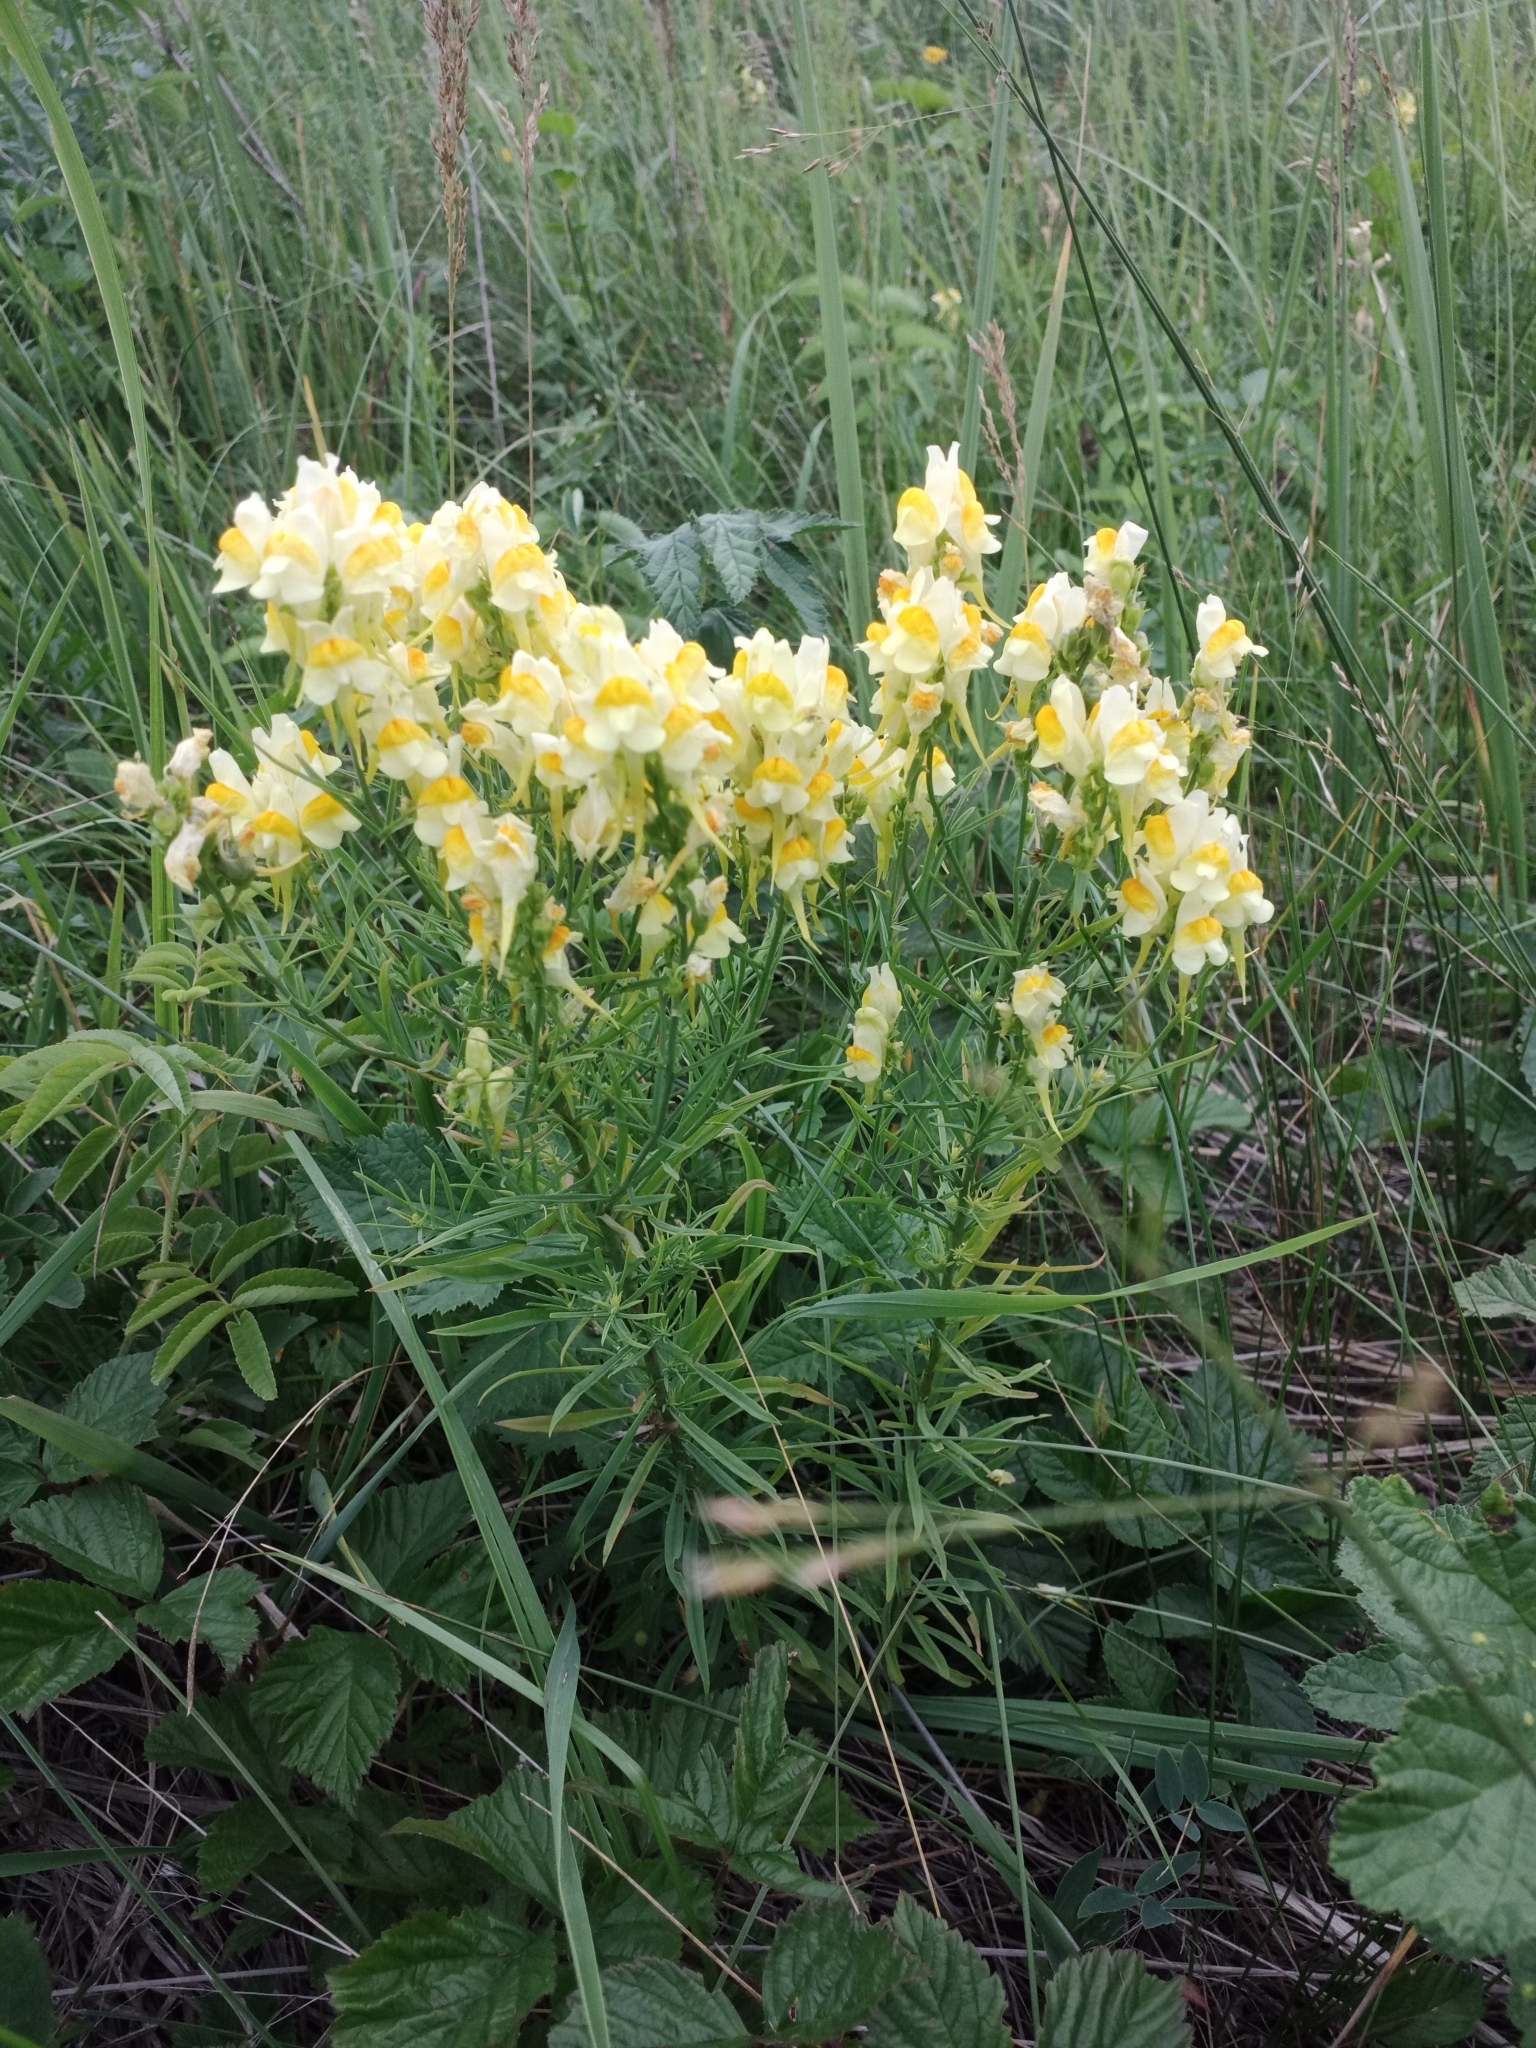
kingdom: Plantae
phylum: Tracheophyta
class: Magnoliopsida
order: Lamiales
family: Plantaginaceae
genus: Linaria
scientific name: Linaria vulgaris
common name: Butter and eggs
